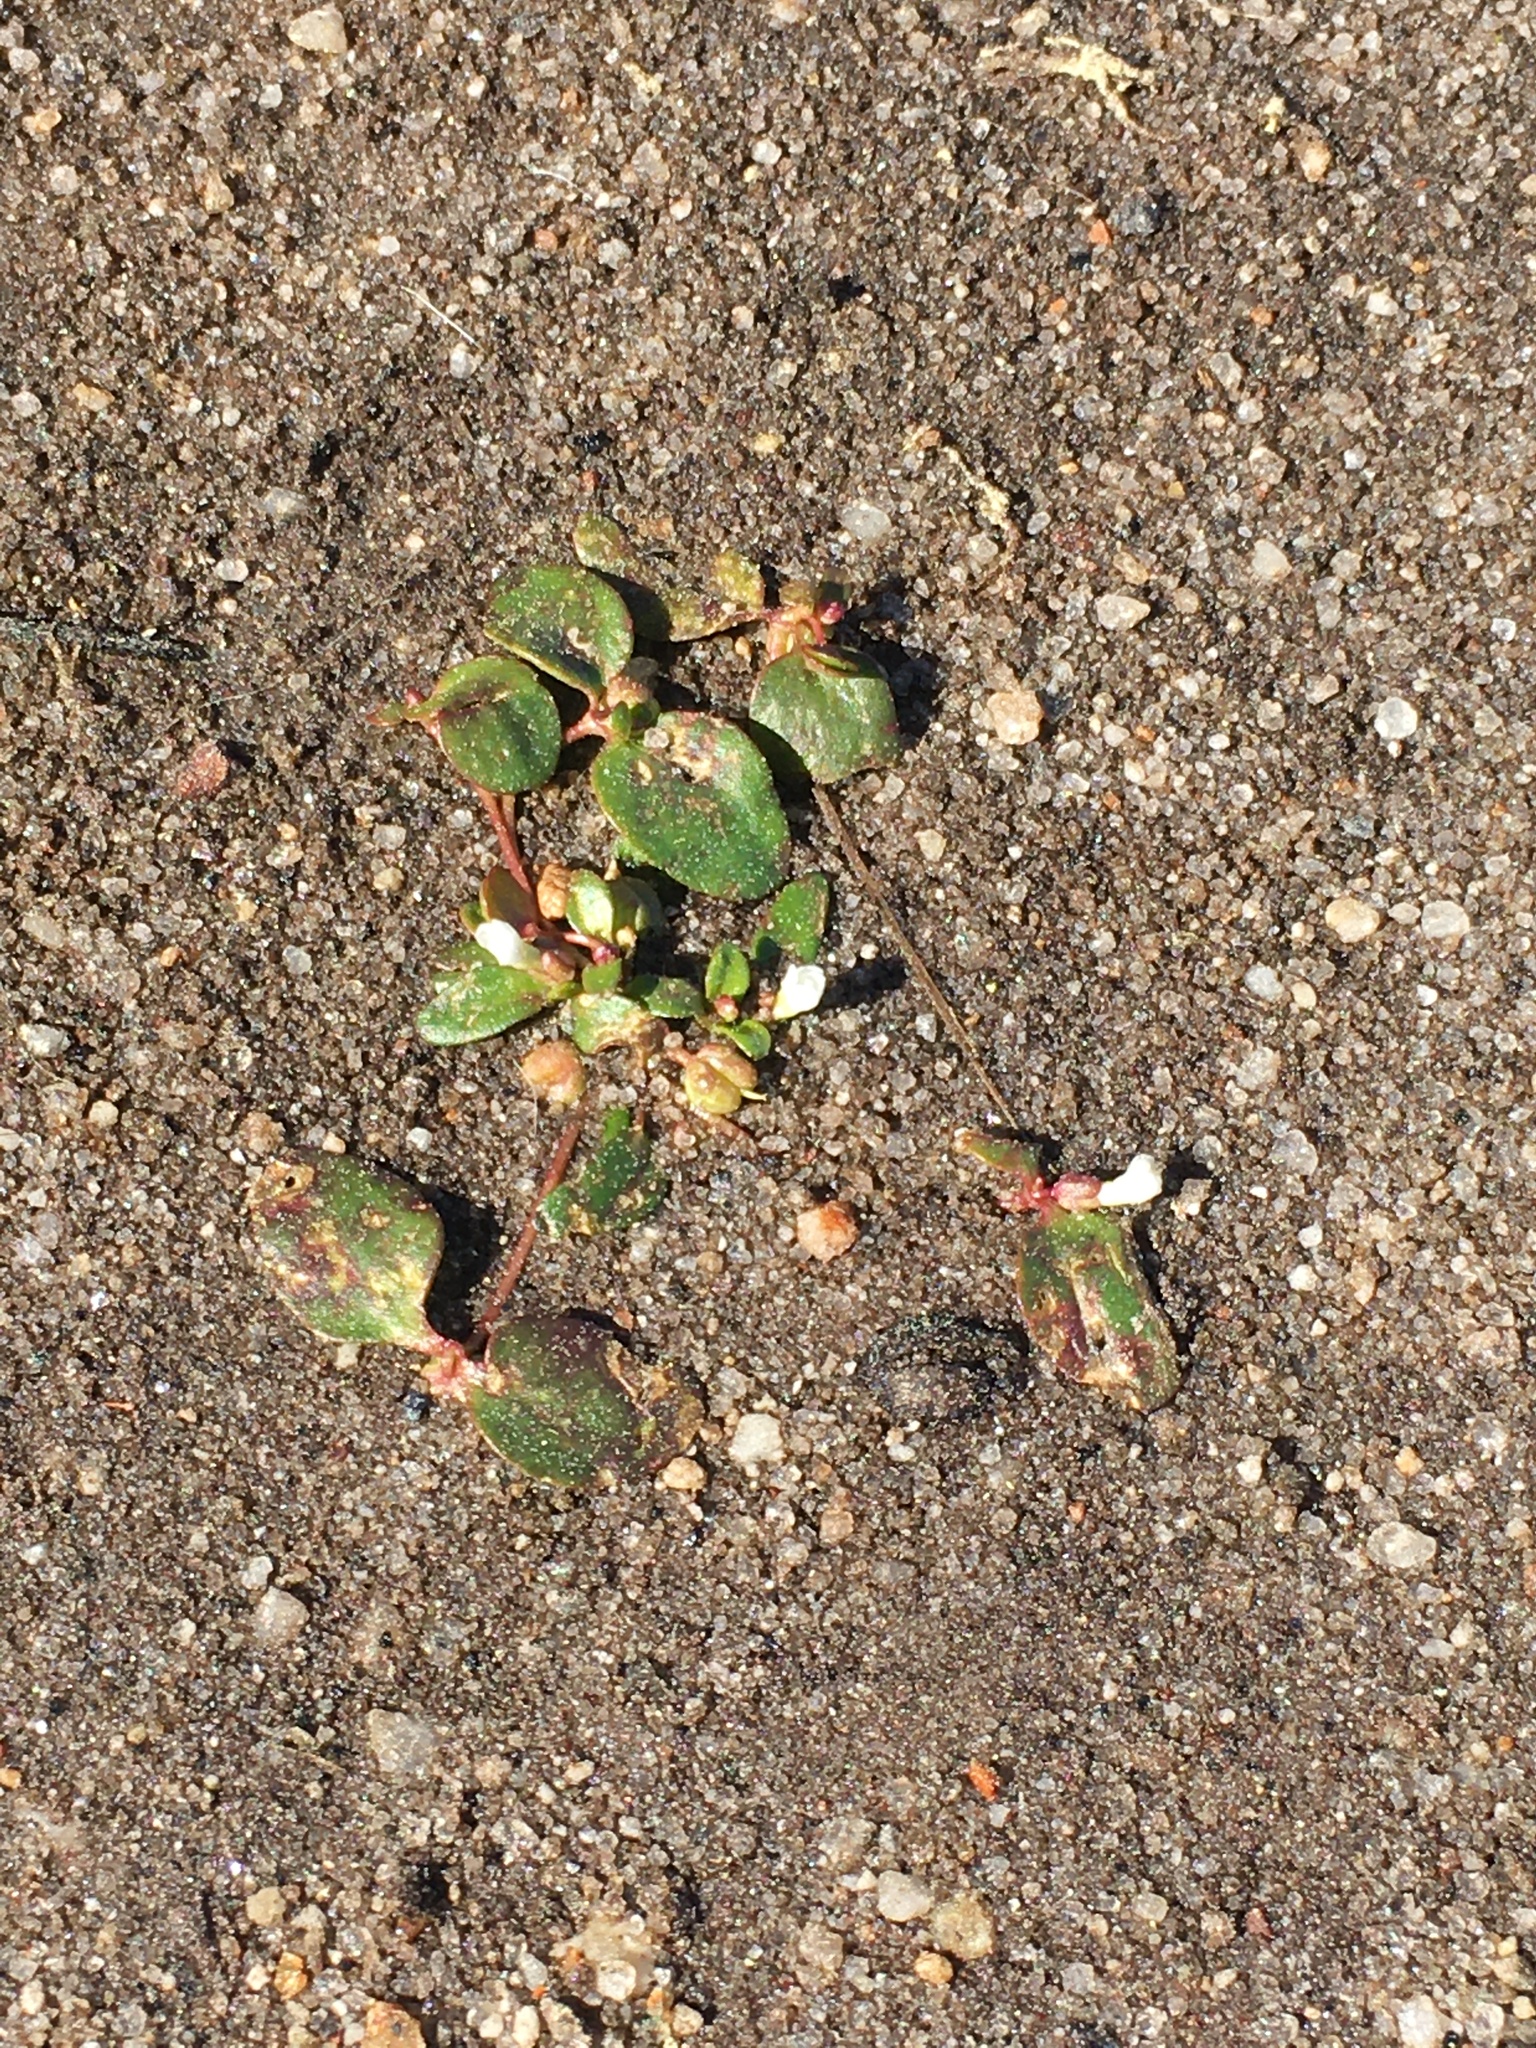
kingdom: Plantae
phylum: Tracheophyta
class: Magnoliopsida
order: Lamiales
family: Plantaginaceae
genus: Gratiola
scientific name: Gratiola amphiantha
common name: Little amphianthus
